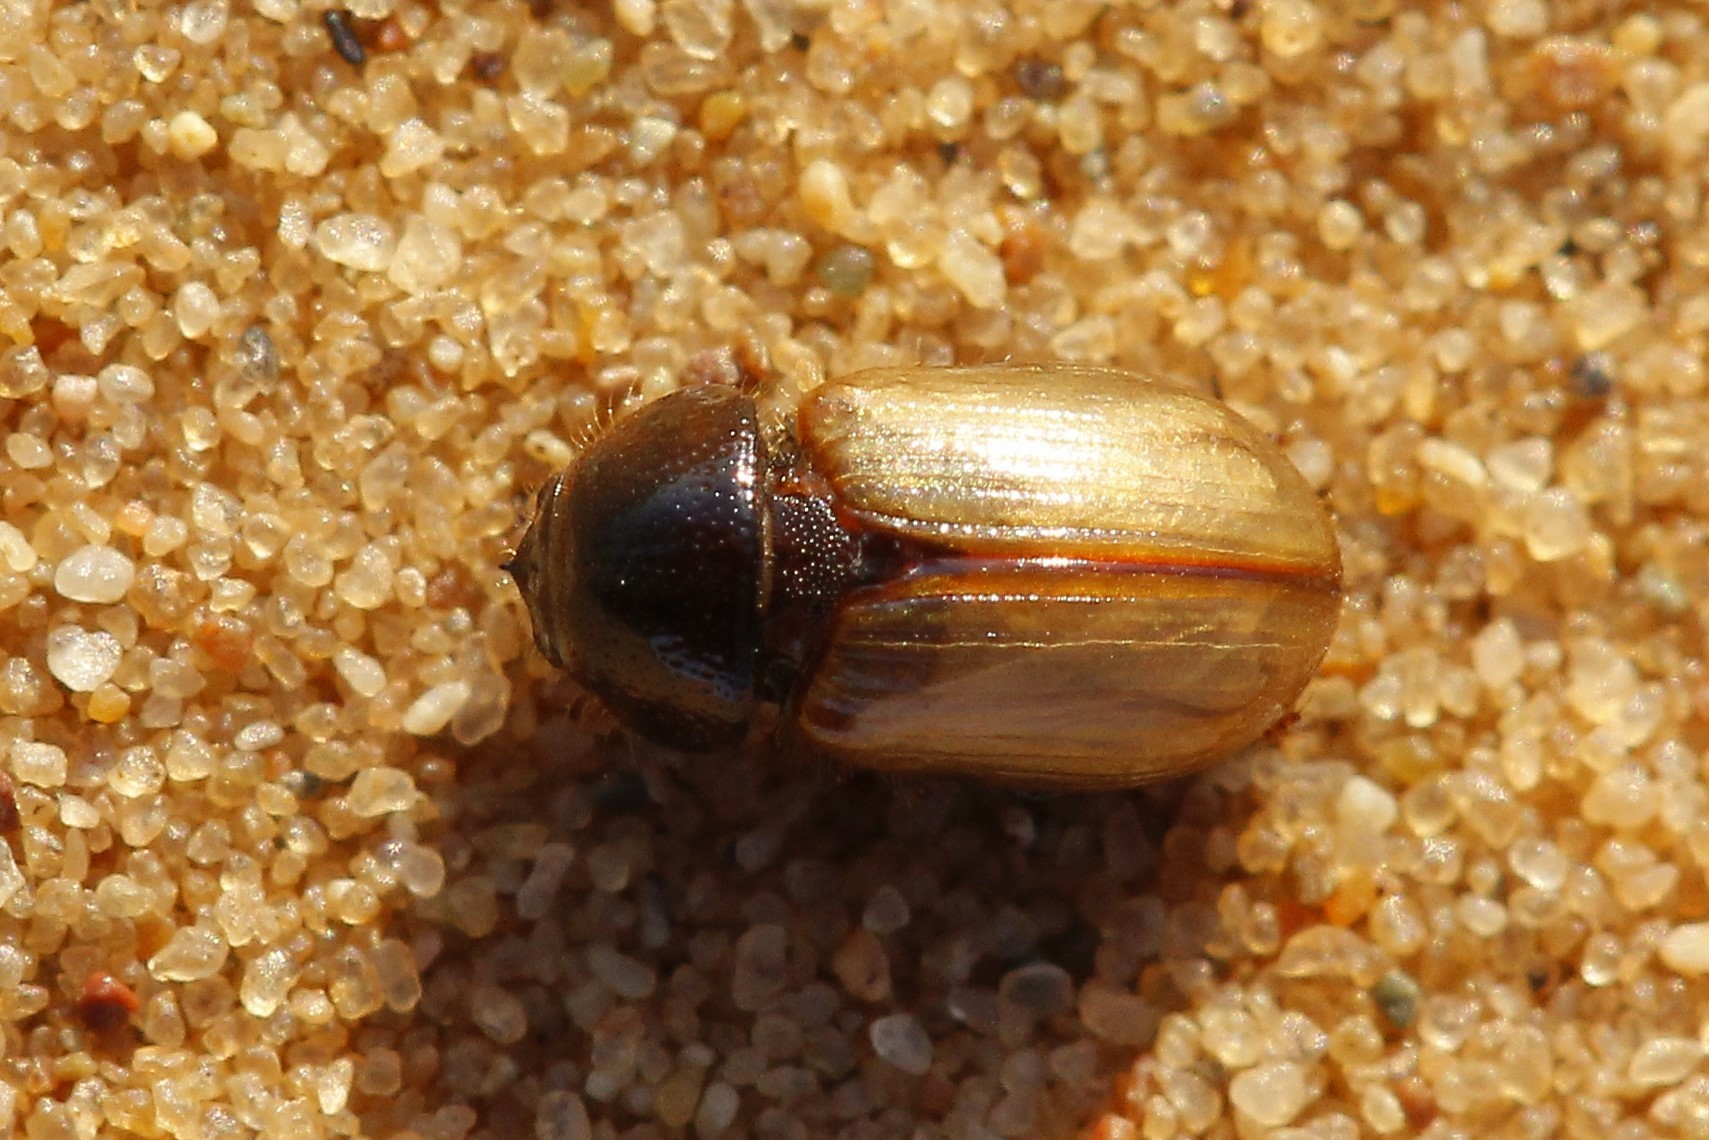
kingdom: Animalia
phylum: Arthropoda
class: Insecta
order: Coleoptera
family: Scarabaeidae
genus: Sugrames
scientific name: Sugrames hauseri
